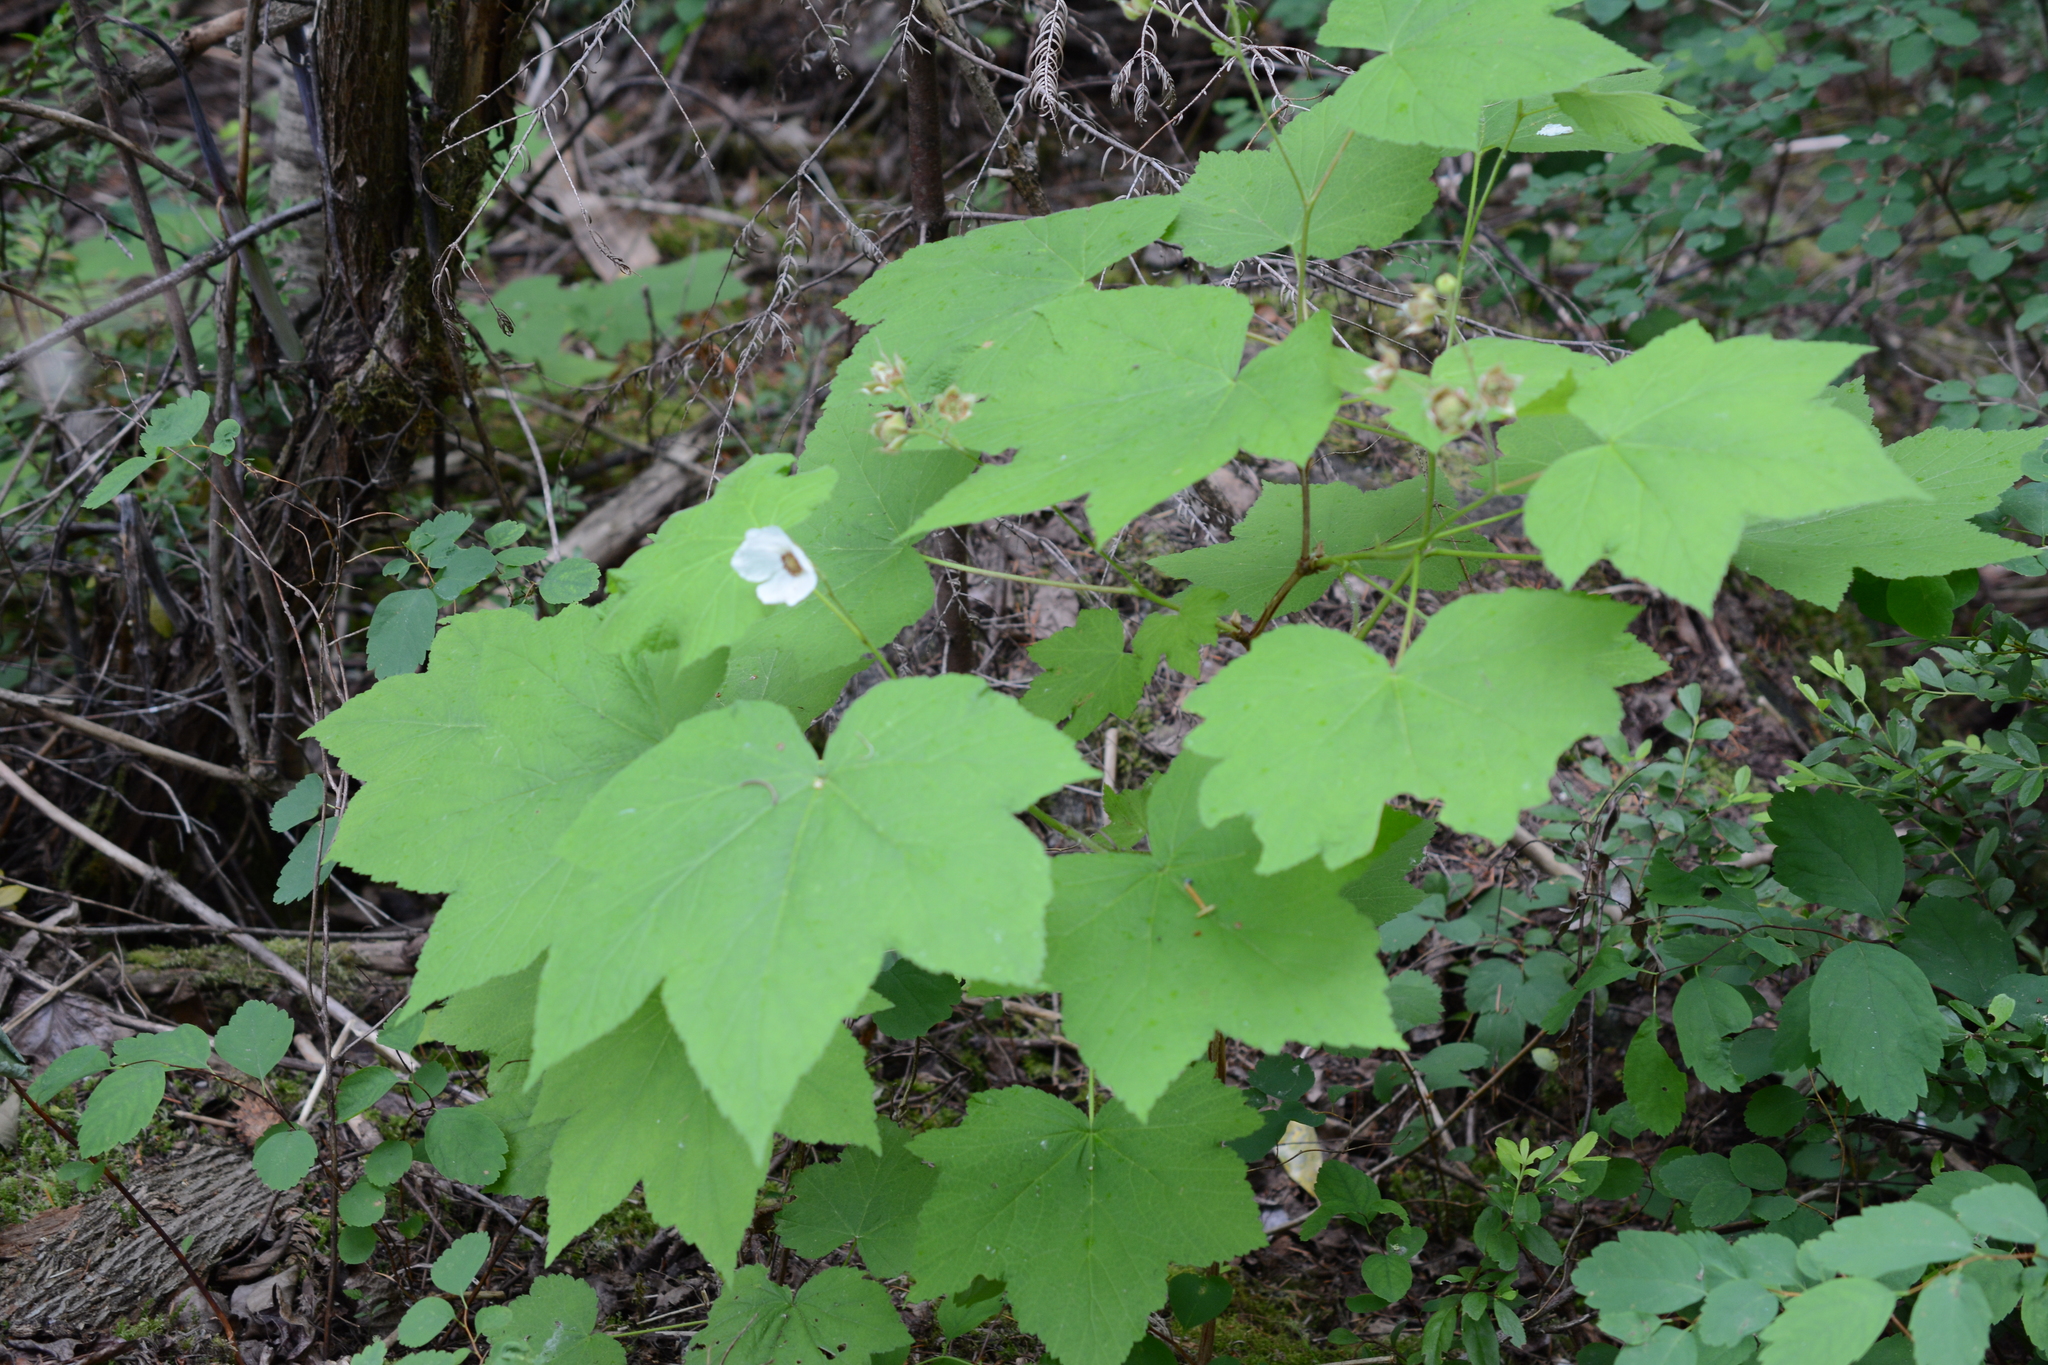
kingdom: Plantae
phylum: Tracheophyta
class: Magnoliopsida
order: Rosales
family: Rosaceae
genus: Rubus
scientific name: Rubus parviflorus
